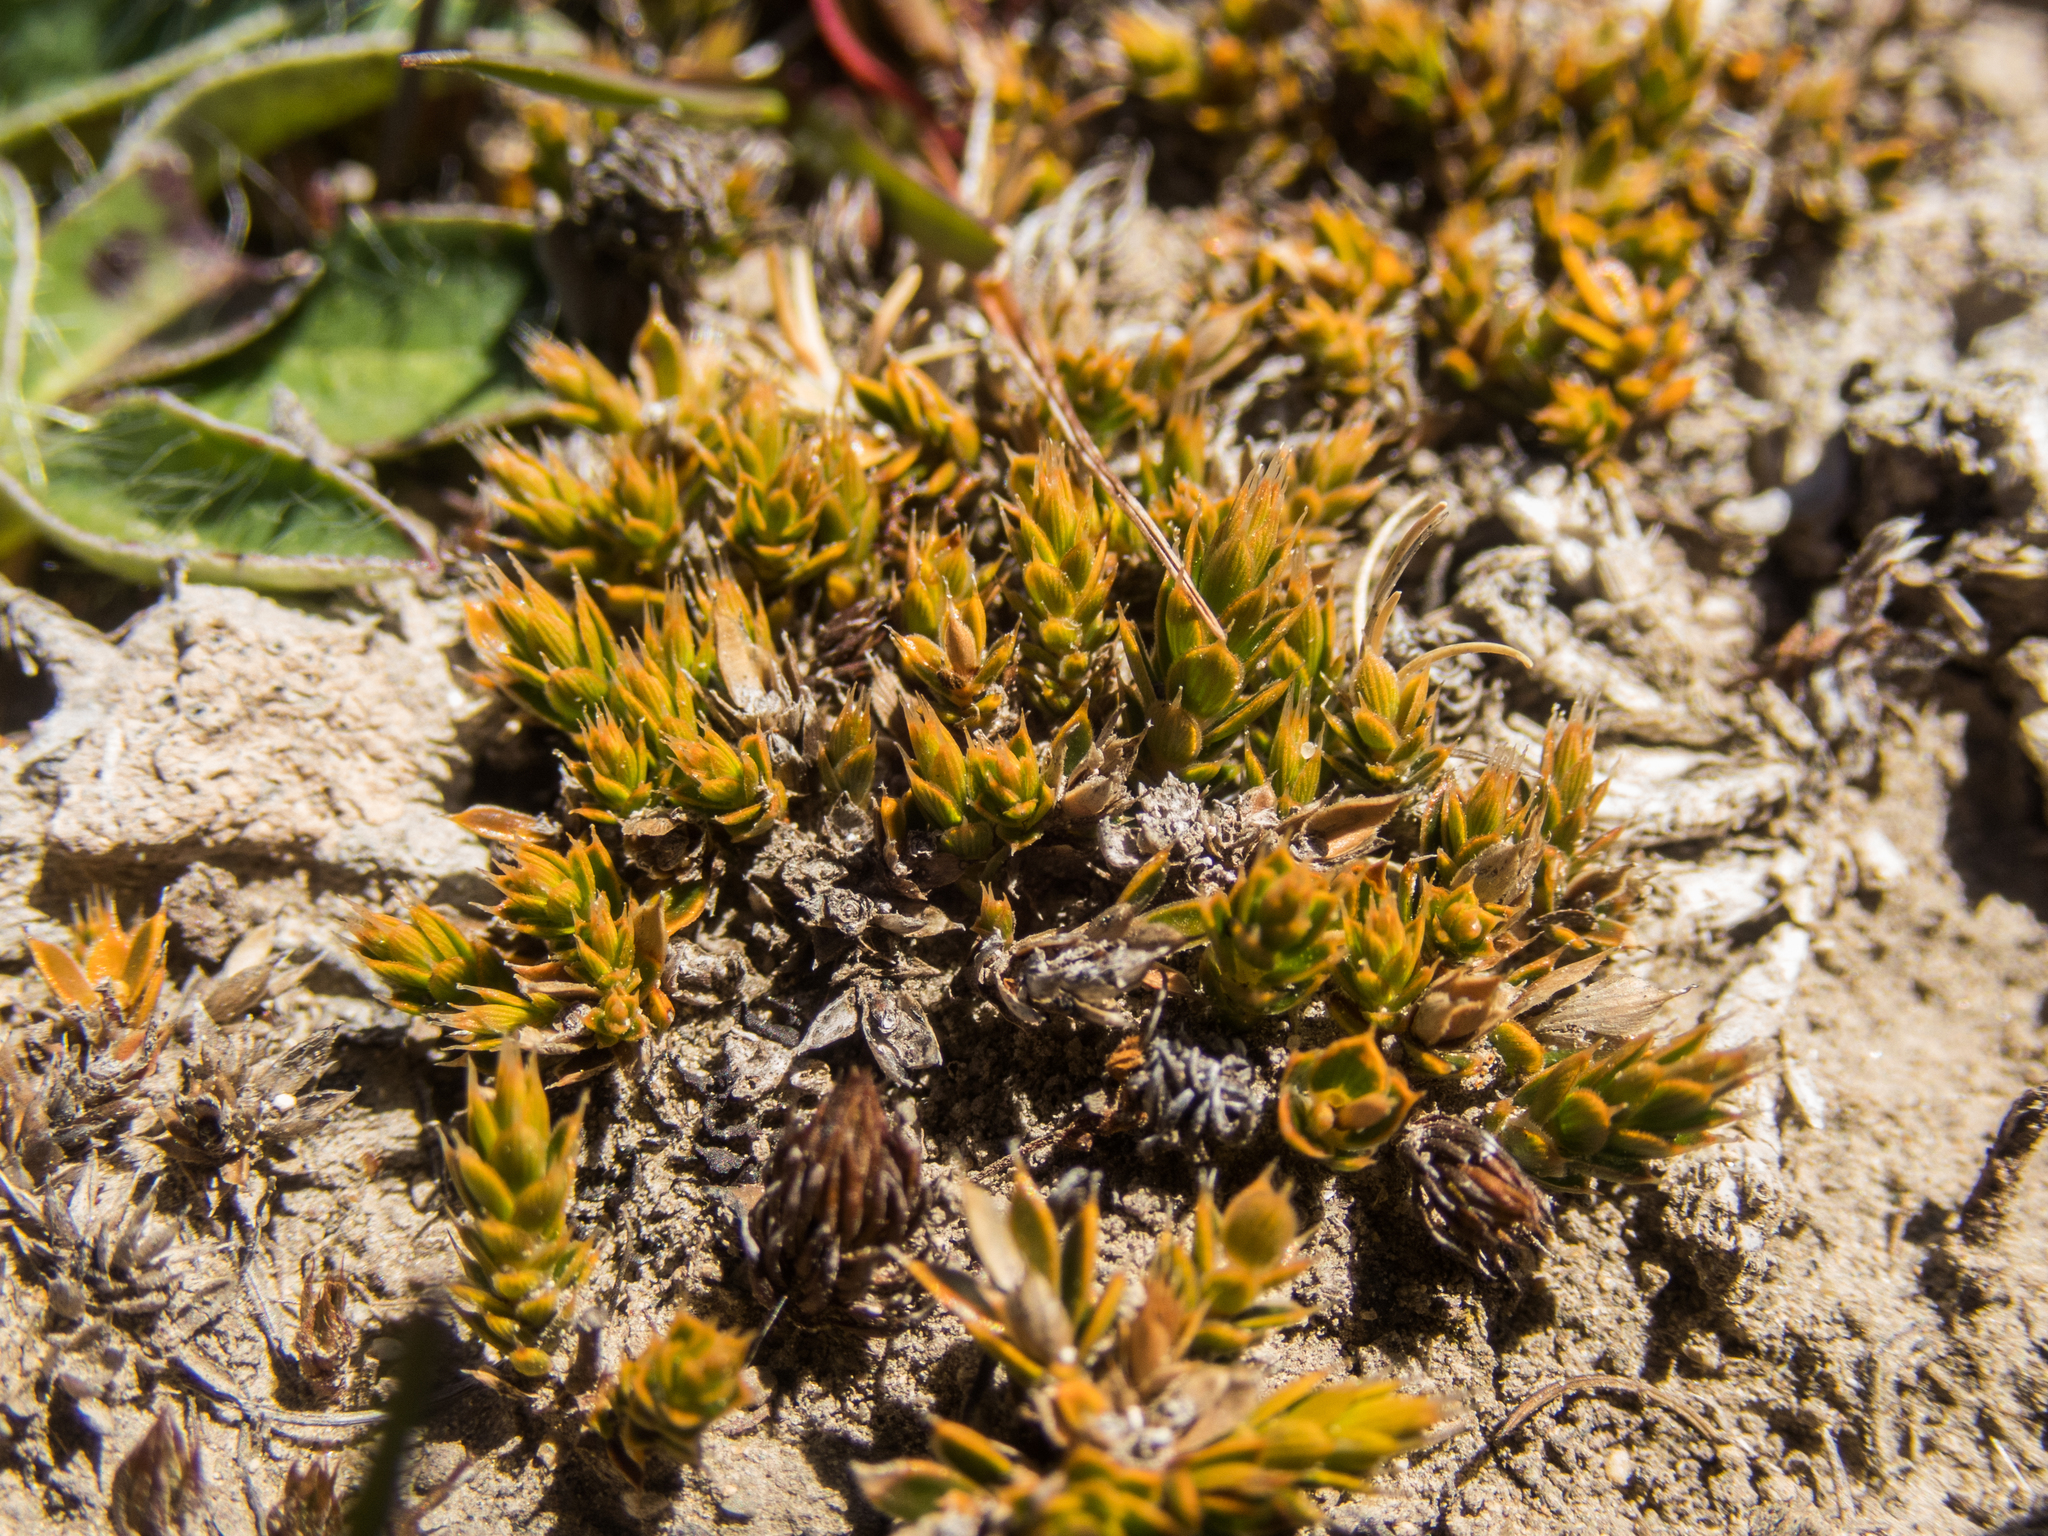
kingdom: Plantae
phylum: Tracheophyta
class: Magnoliopsida
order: Ericales
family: Ericaceae
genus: Styphelia
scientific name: Styphelia nana
